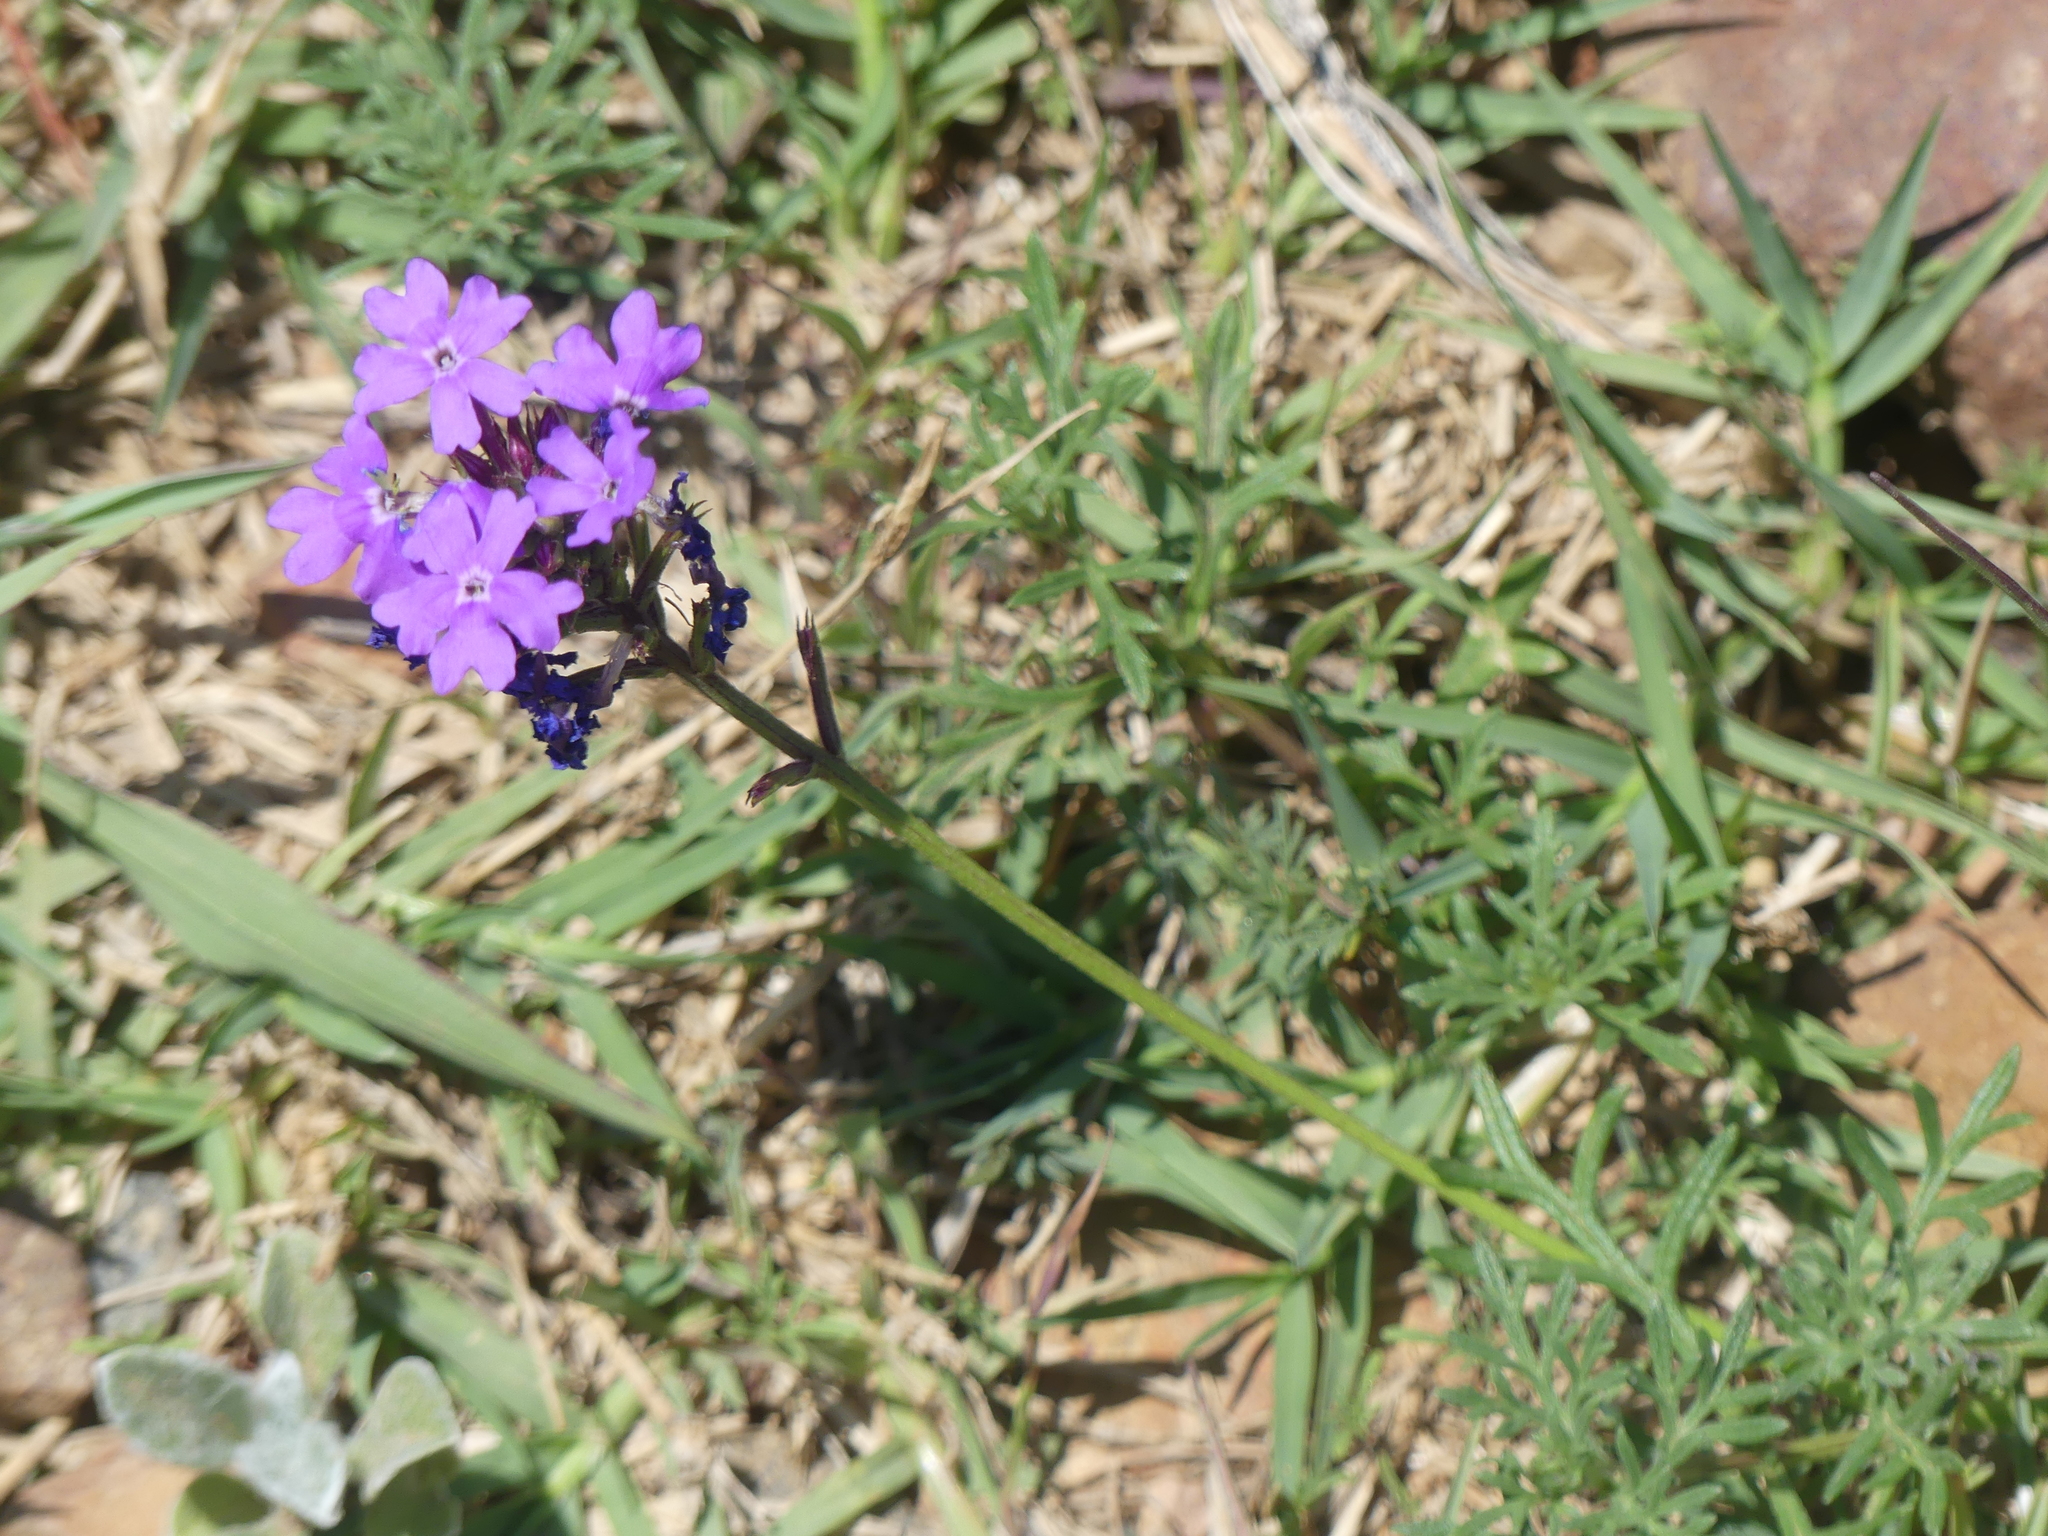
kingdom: Plantae
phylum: Tracheophyta
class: Magnoliopsida
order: Lamiales
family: Verbenaceae
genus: Verbena
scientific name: Verbena aristigera
